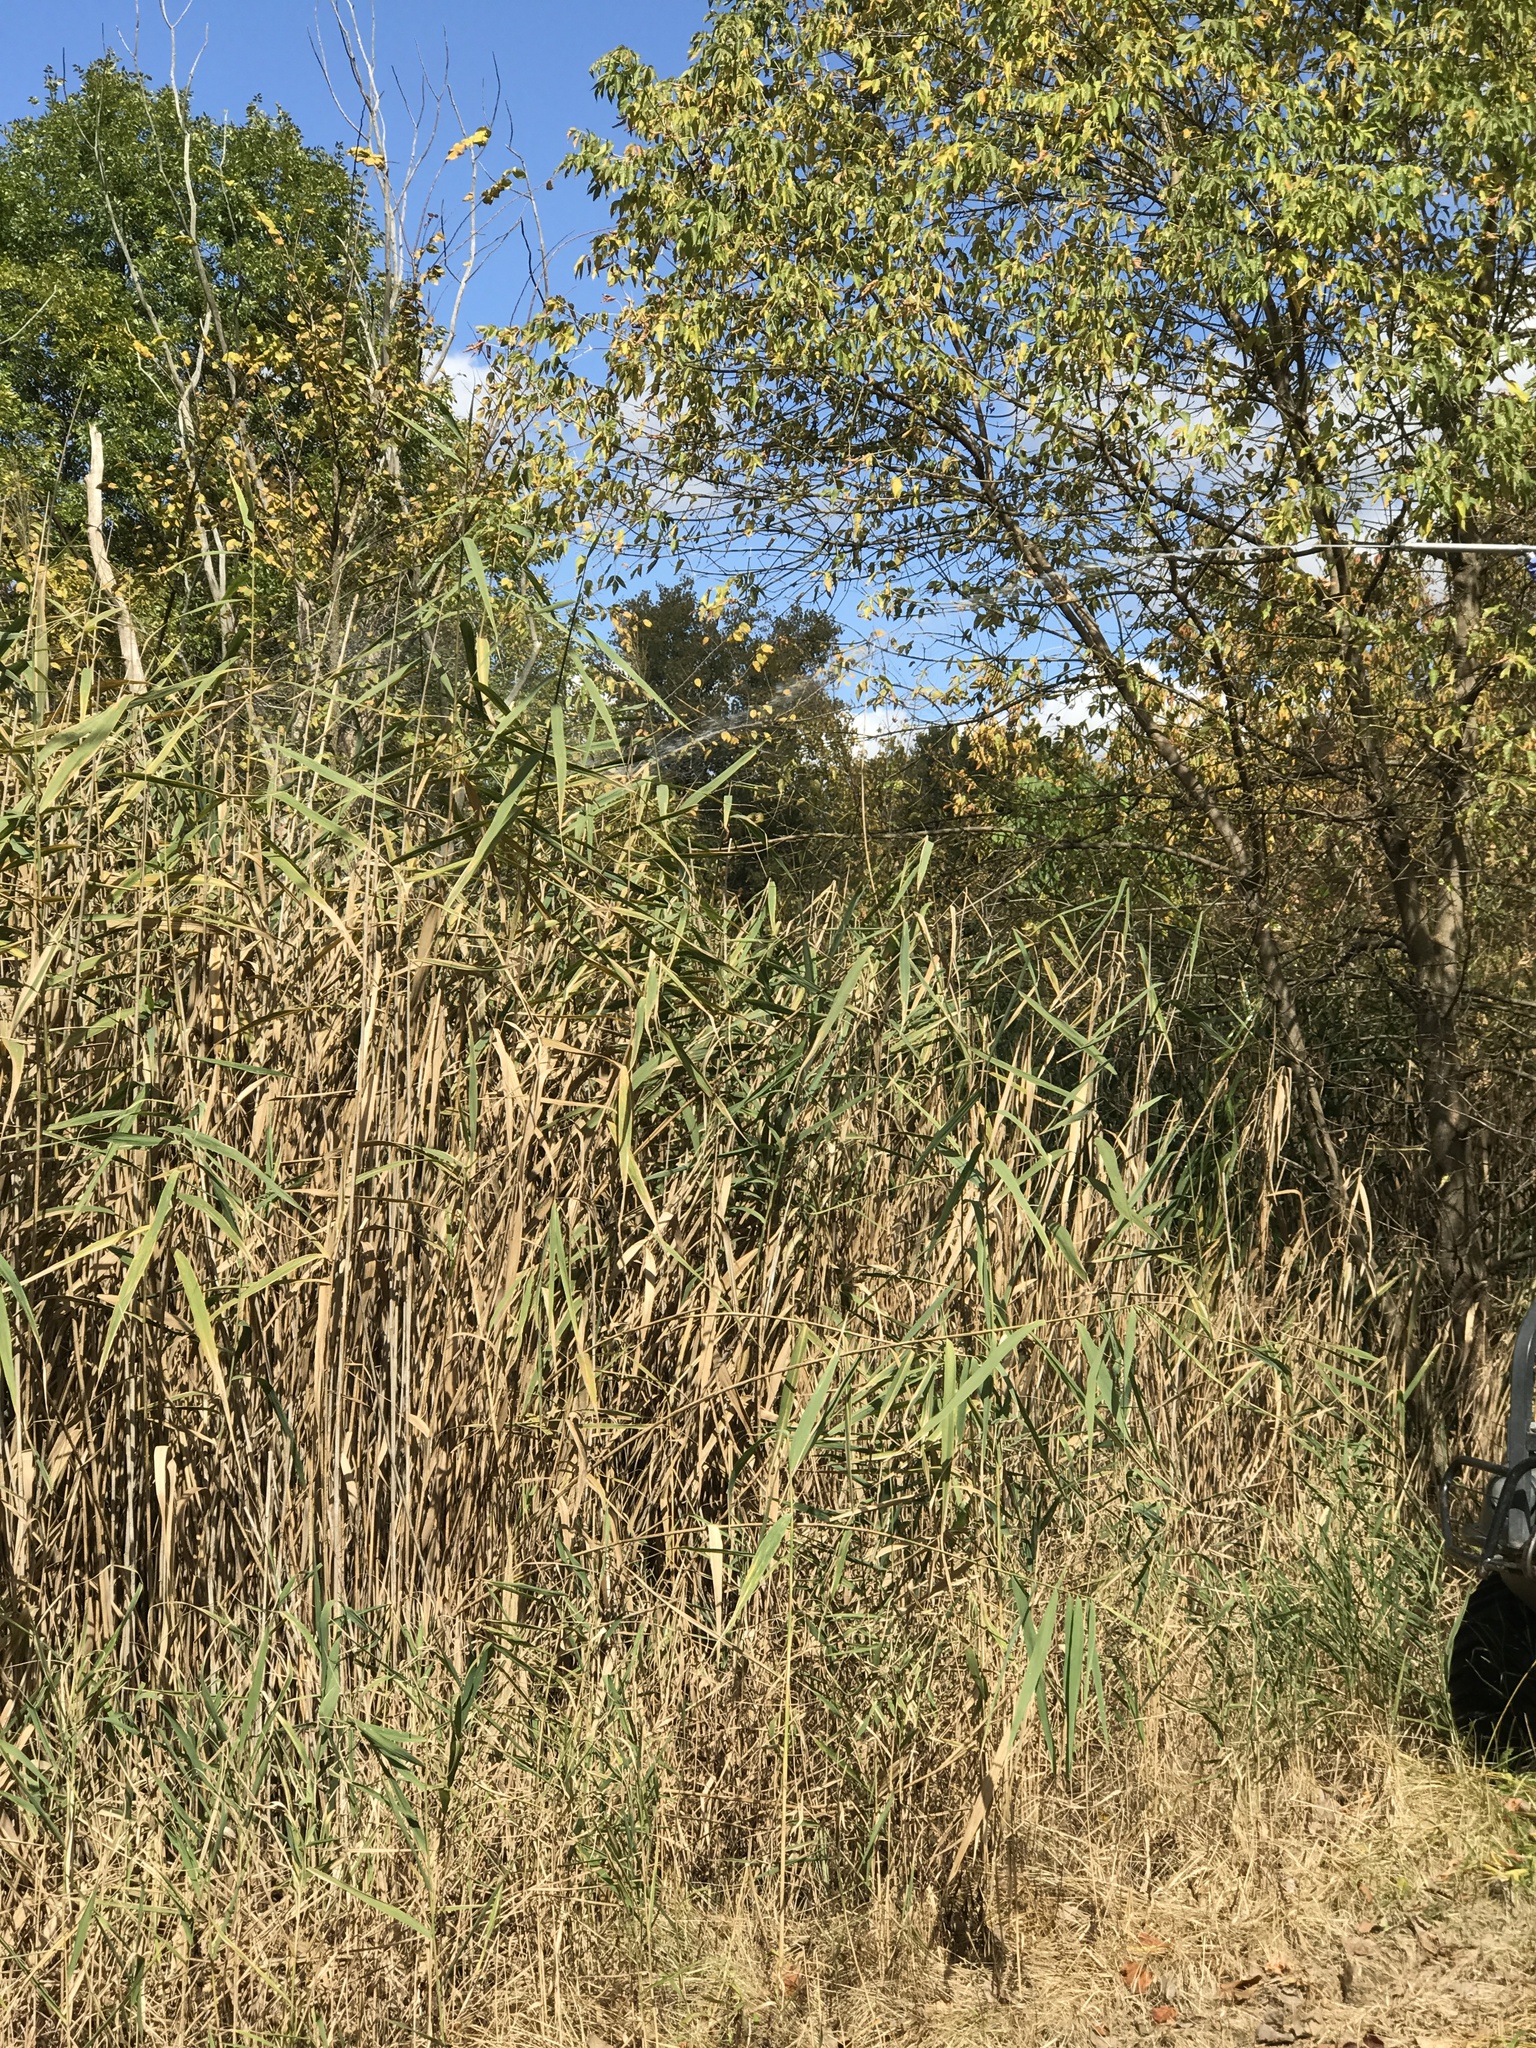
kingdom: Plantae
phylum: Tracheophyta
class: Liliopsida
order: Poales
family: Poaceae
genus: Phragmites
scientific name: Phragmites australis
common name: Common reed
